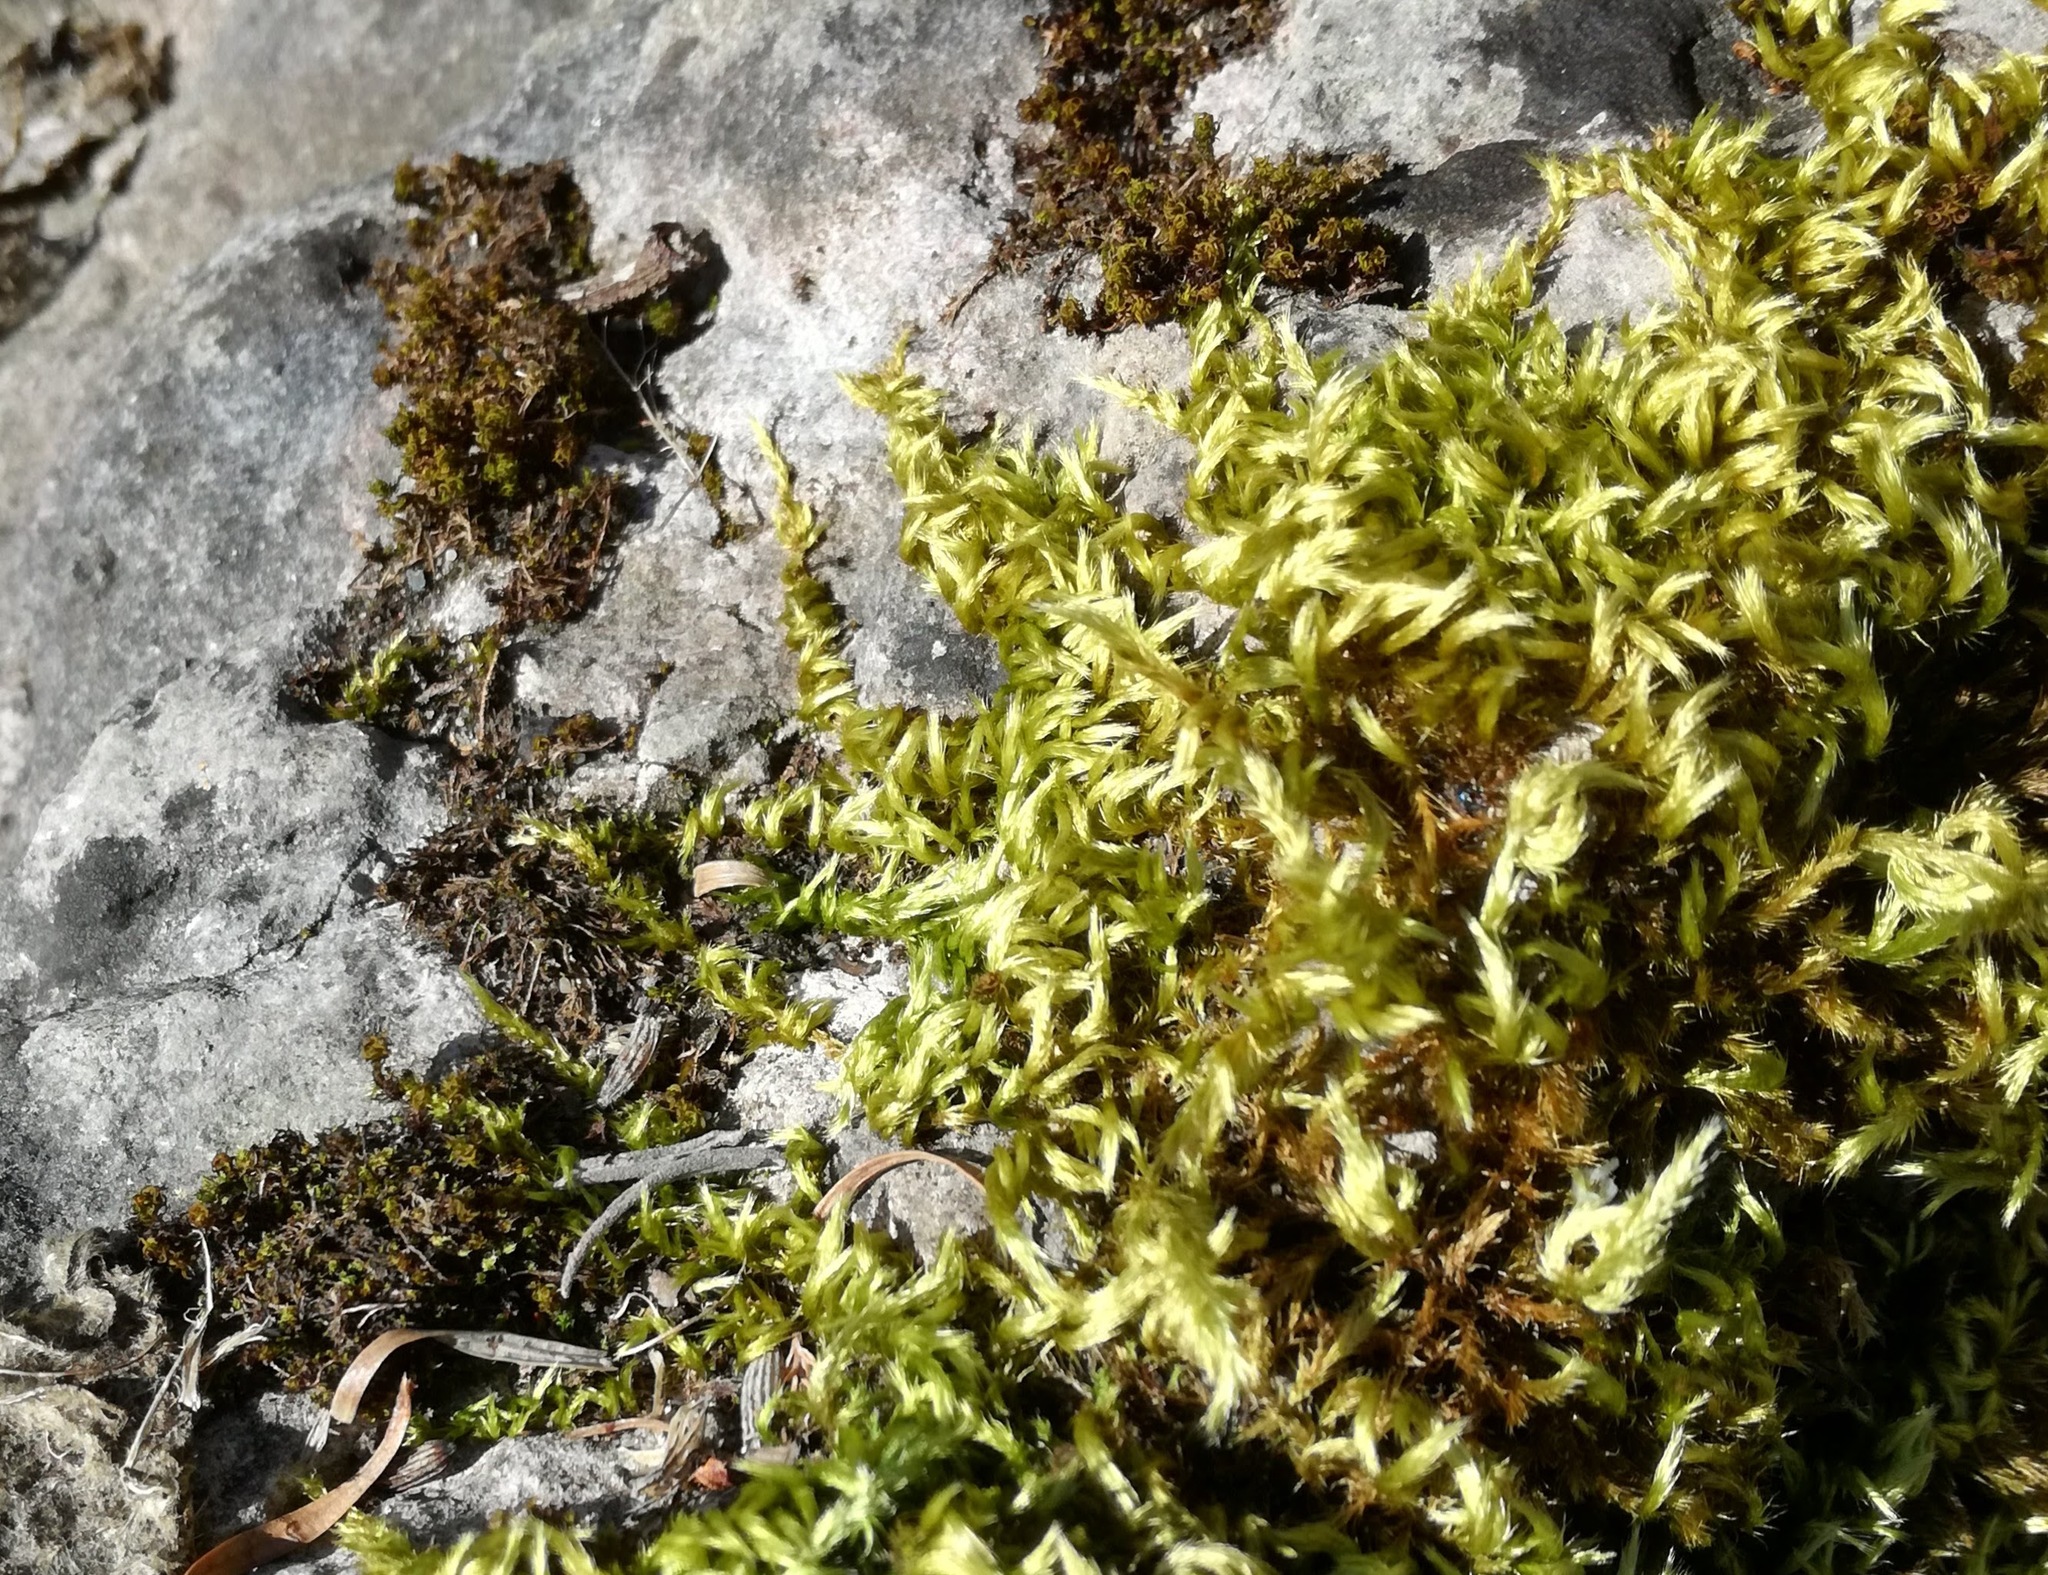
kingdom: Plantae
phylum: Bryophyta
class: Bryopsida
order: Hypnales
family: Brachytheciaceae
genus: Homalothecium
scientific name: Homalothecium sericeum
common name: Silky wall feather-moss
